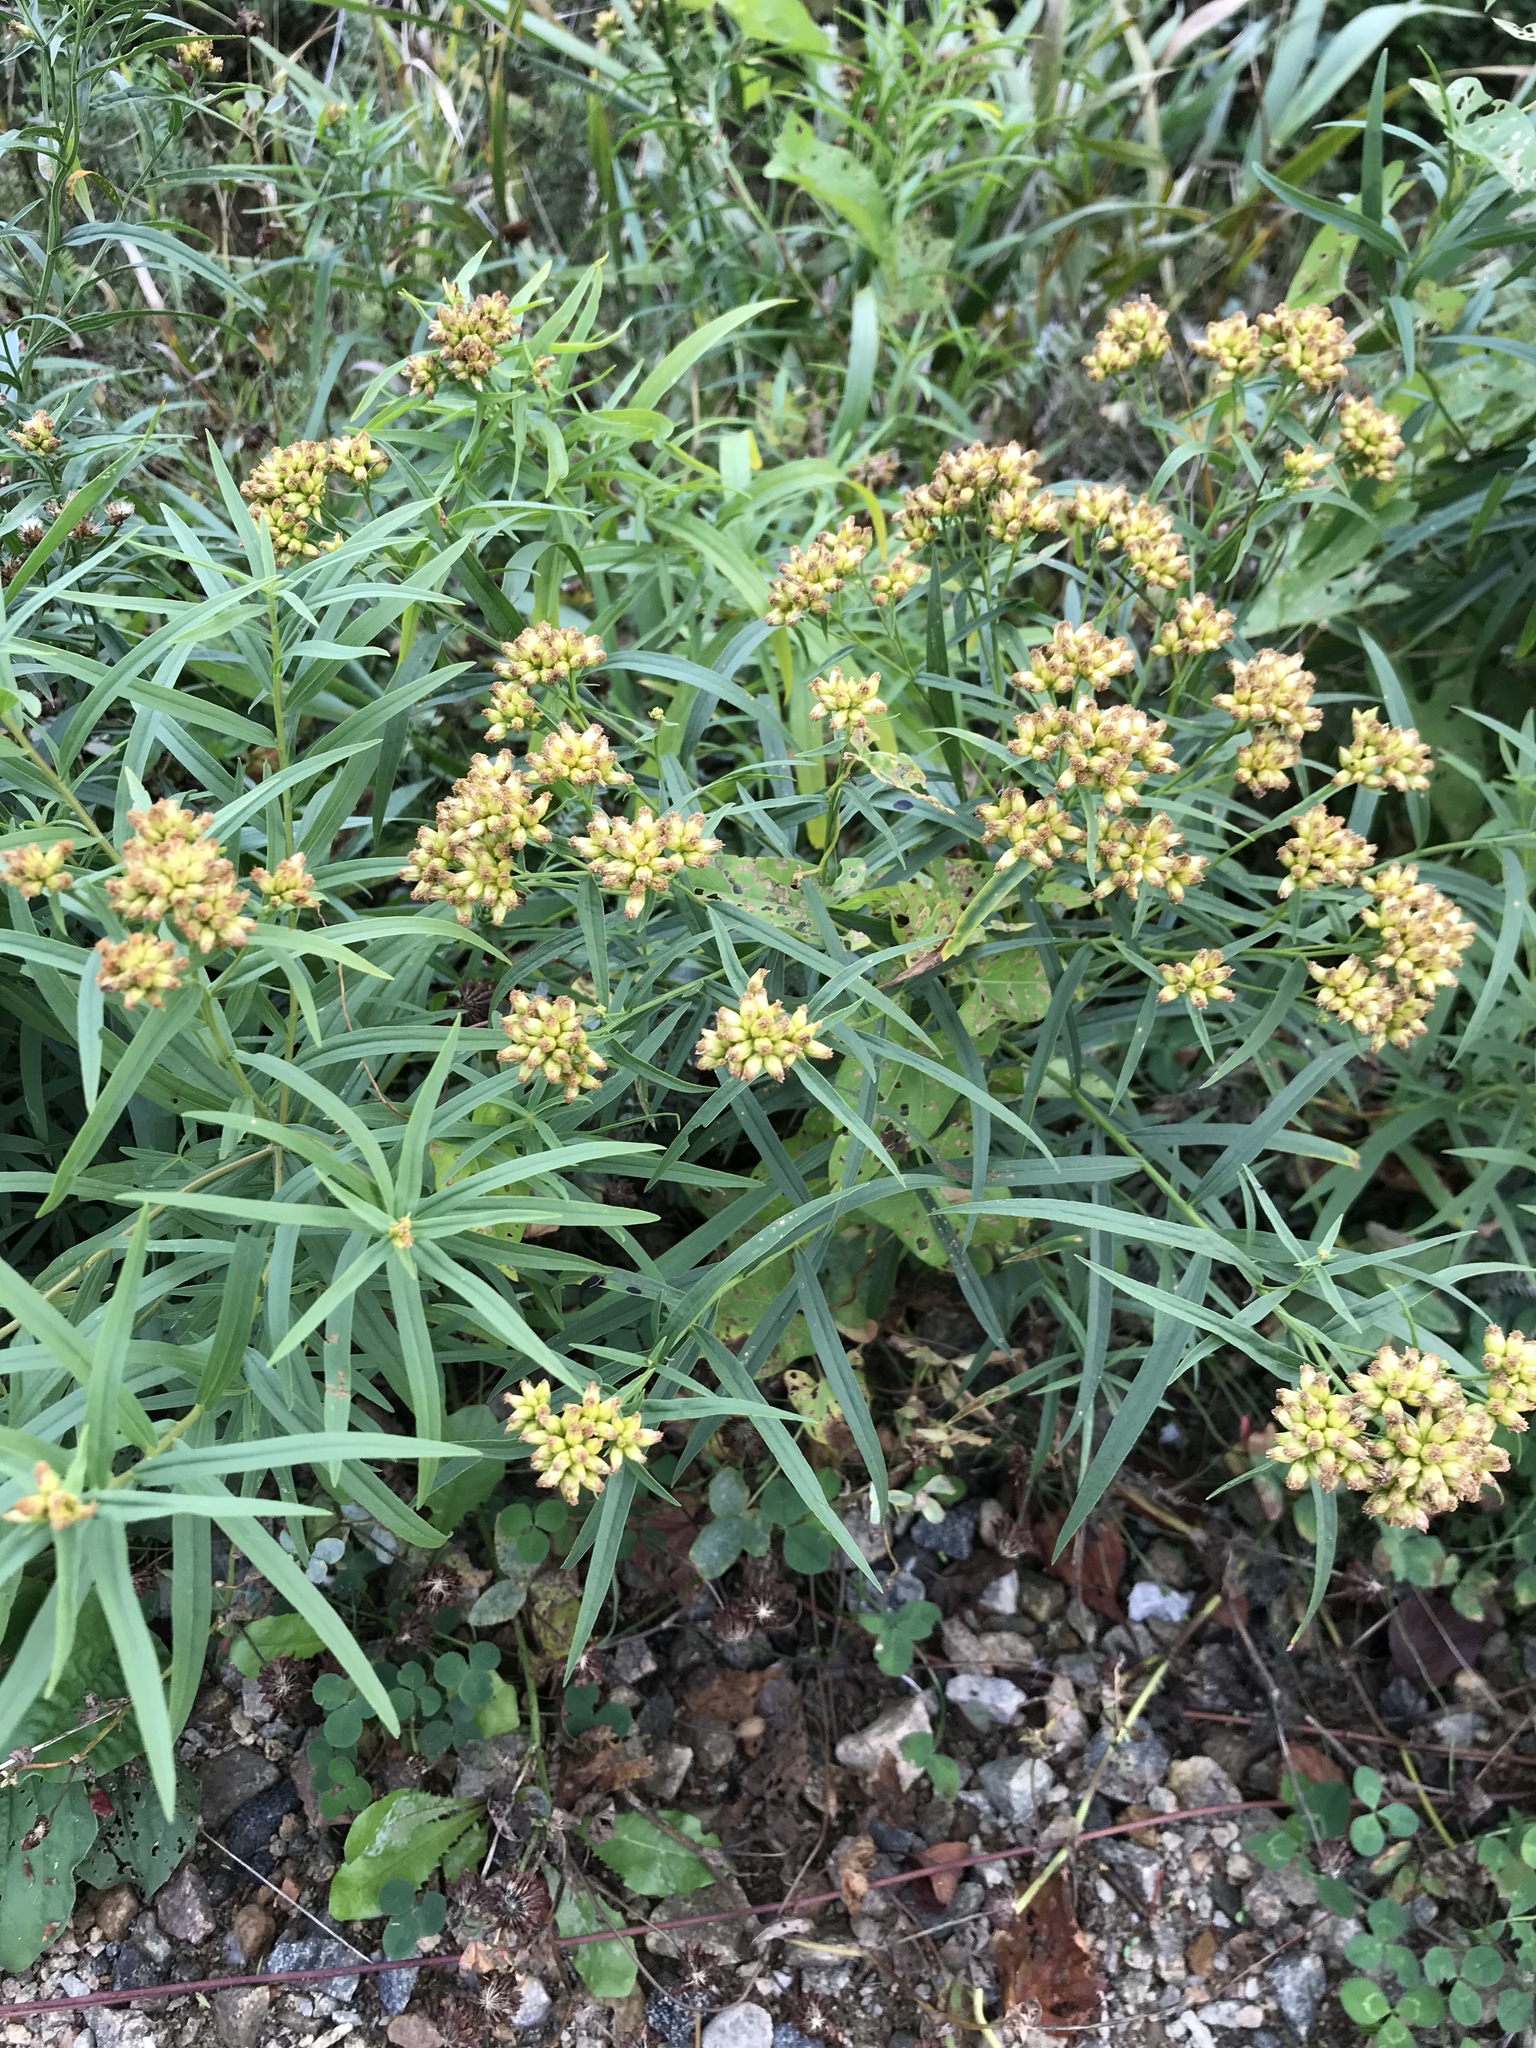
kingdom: Plantae
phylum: Tracheophyta
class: Magnoliopsida
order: Asterales
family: Asteraceae
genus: Euthamia
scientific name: Euthamia graminifolia
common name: Common goldentop
